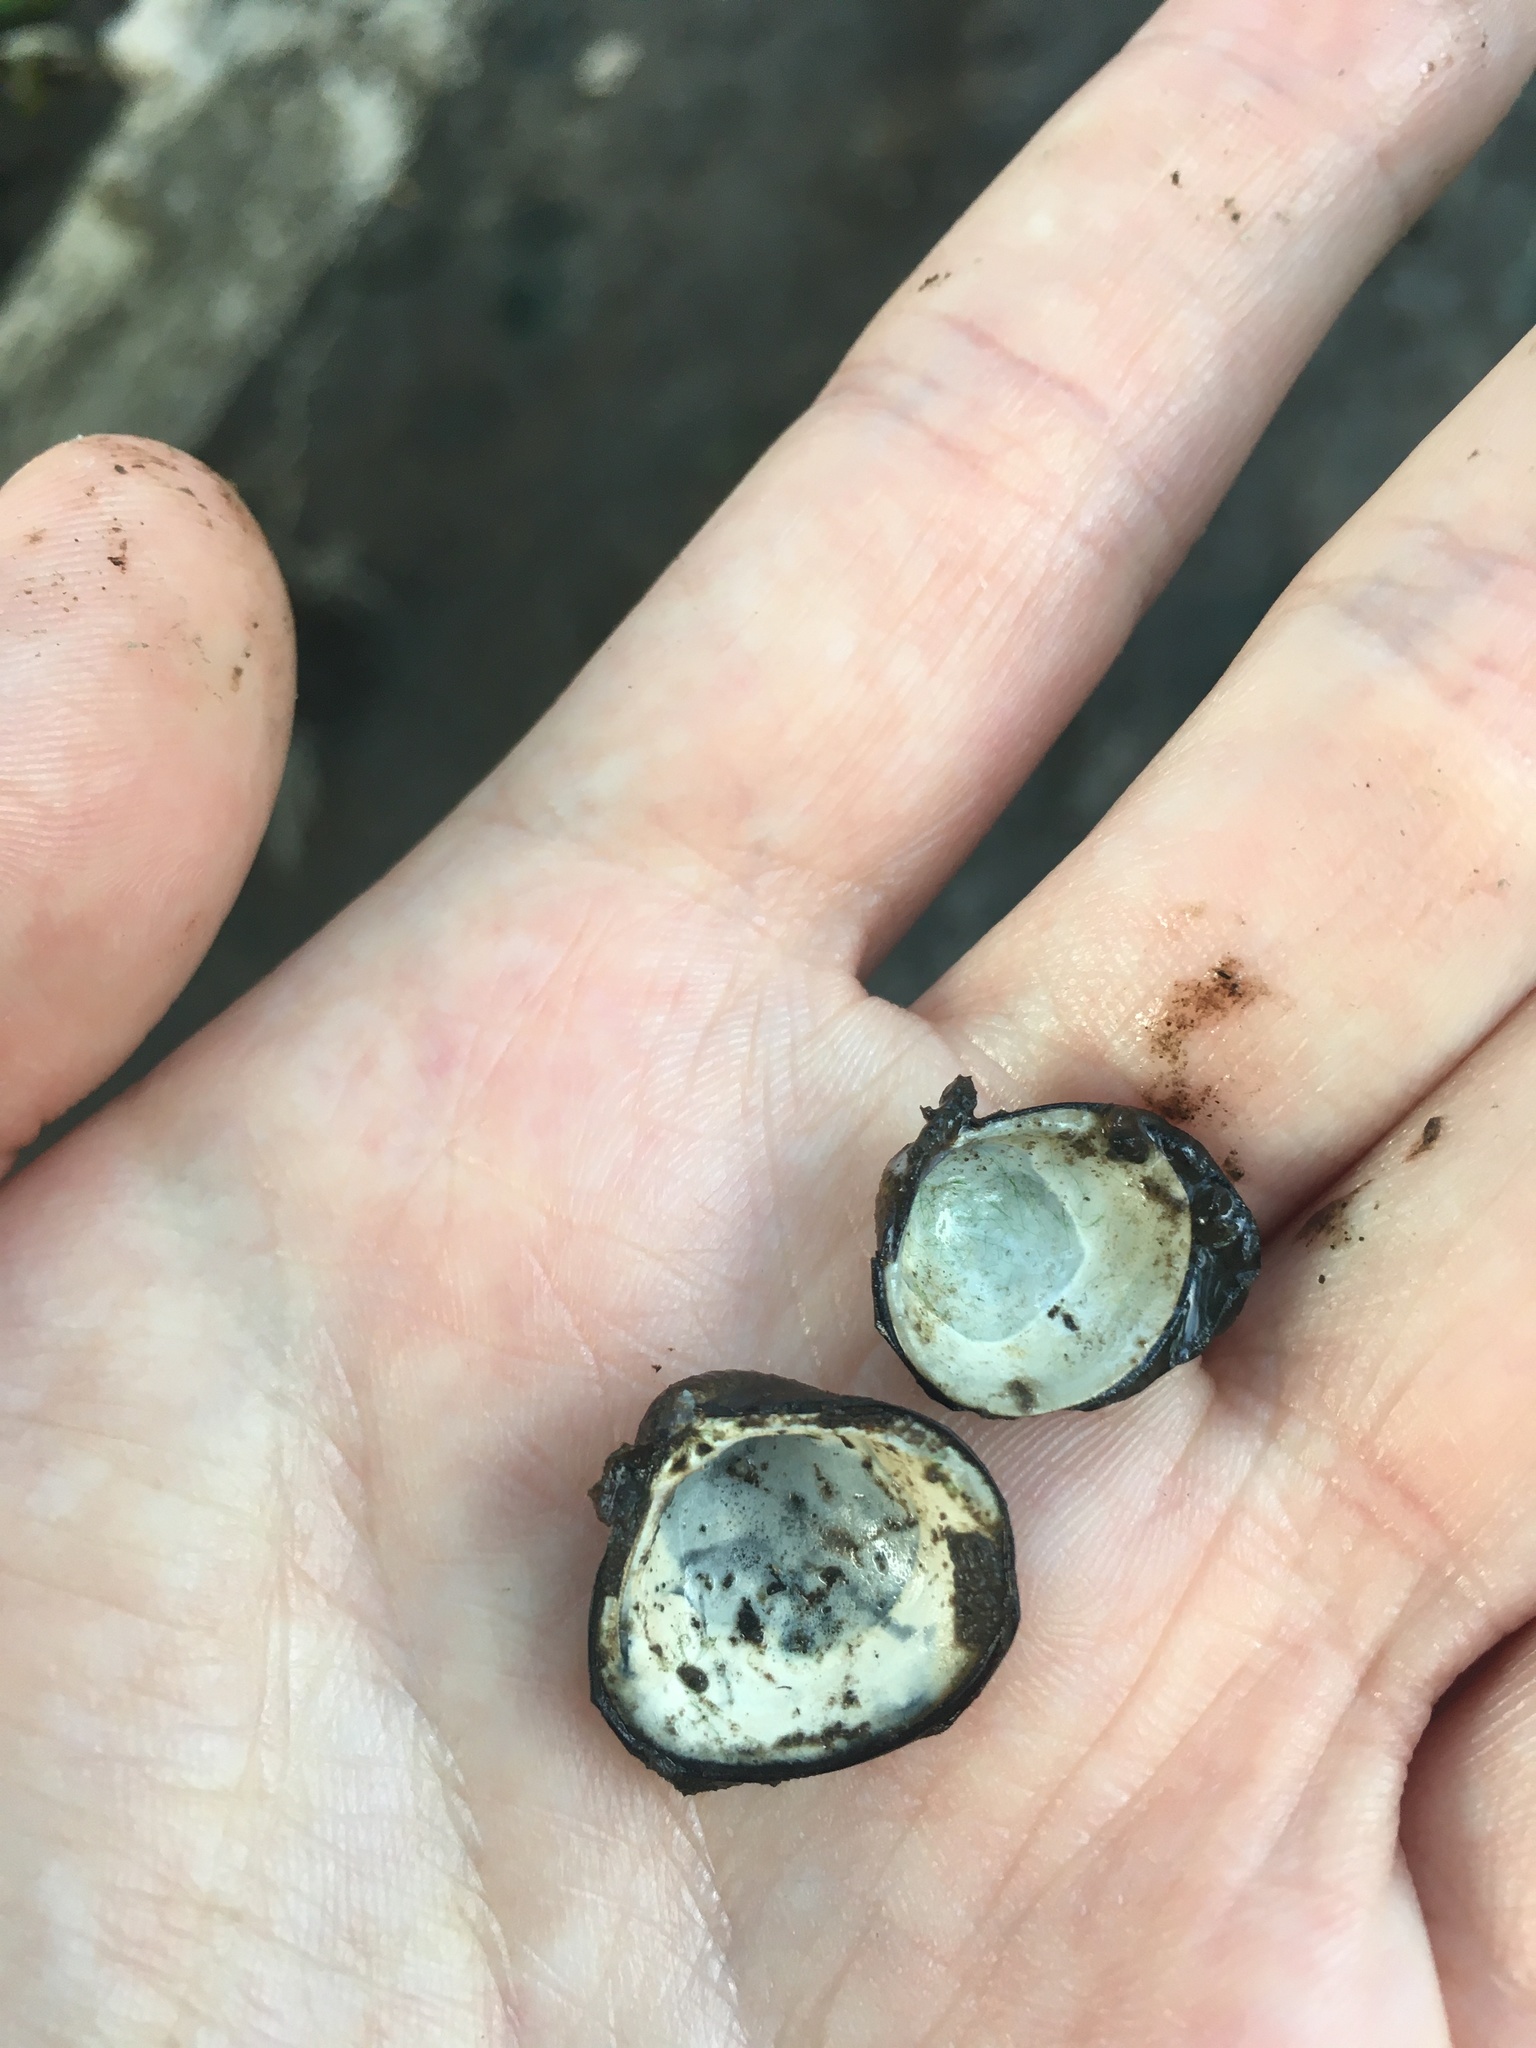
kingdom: Animalia
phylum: Mollusca
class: Bivalvia
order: Venerida
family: Cyrenidae
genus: Corbicula
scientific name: Corbicula fluminea
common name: Asian clam
